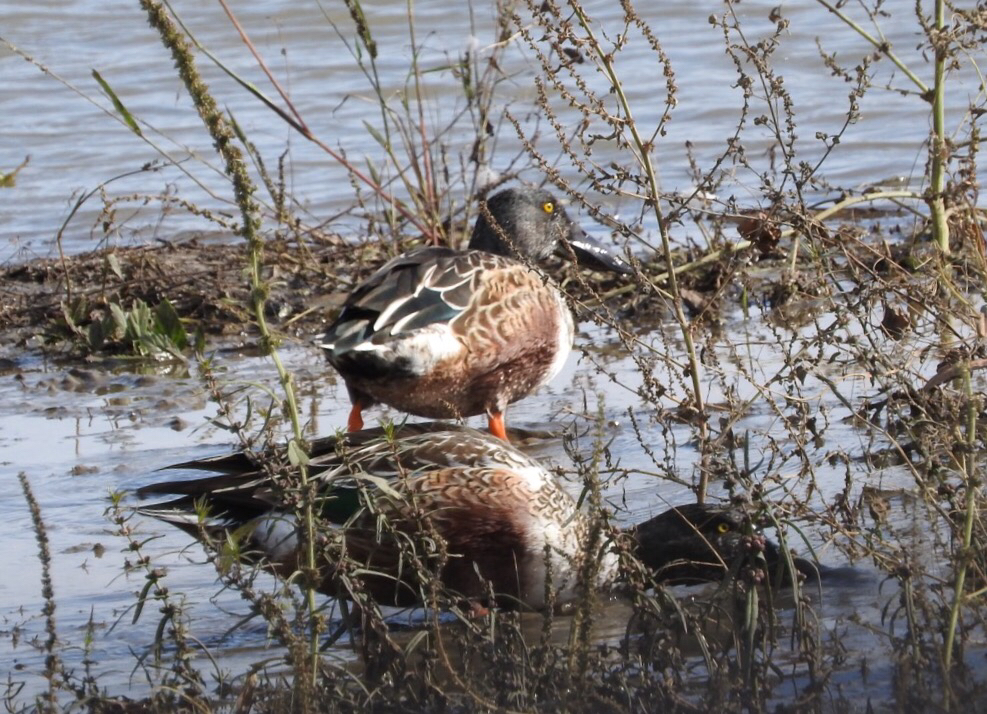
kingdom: Animalia
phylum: Chordata
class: Aves
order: Anseriformes
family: Anatidae
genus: Spatula
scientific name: Spatula clypeata
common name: Northern shoveler
